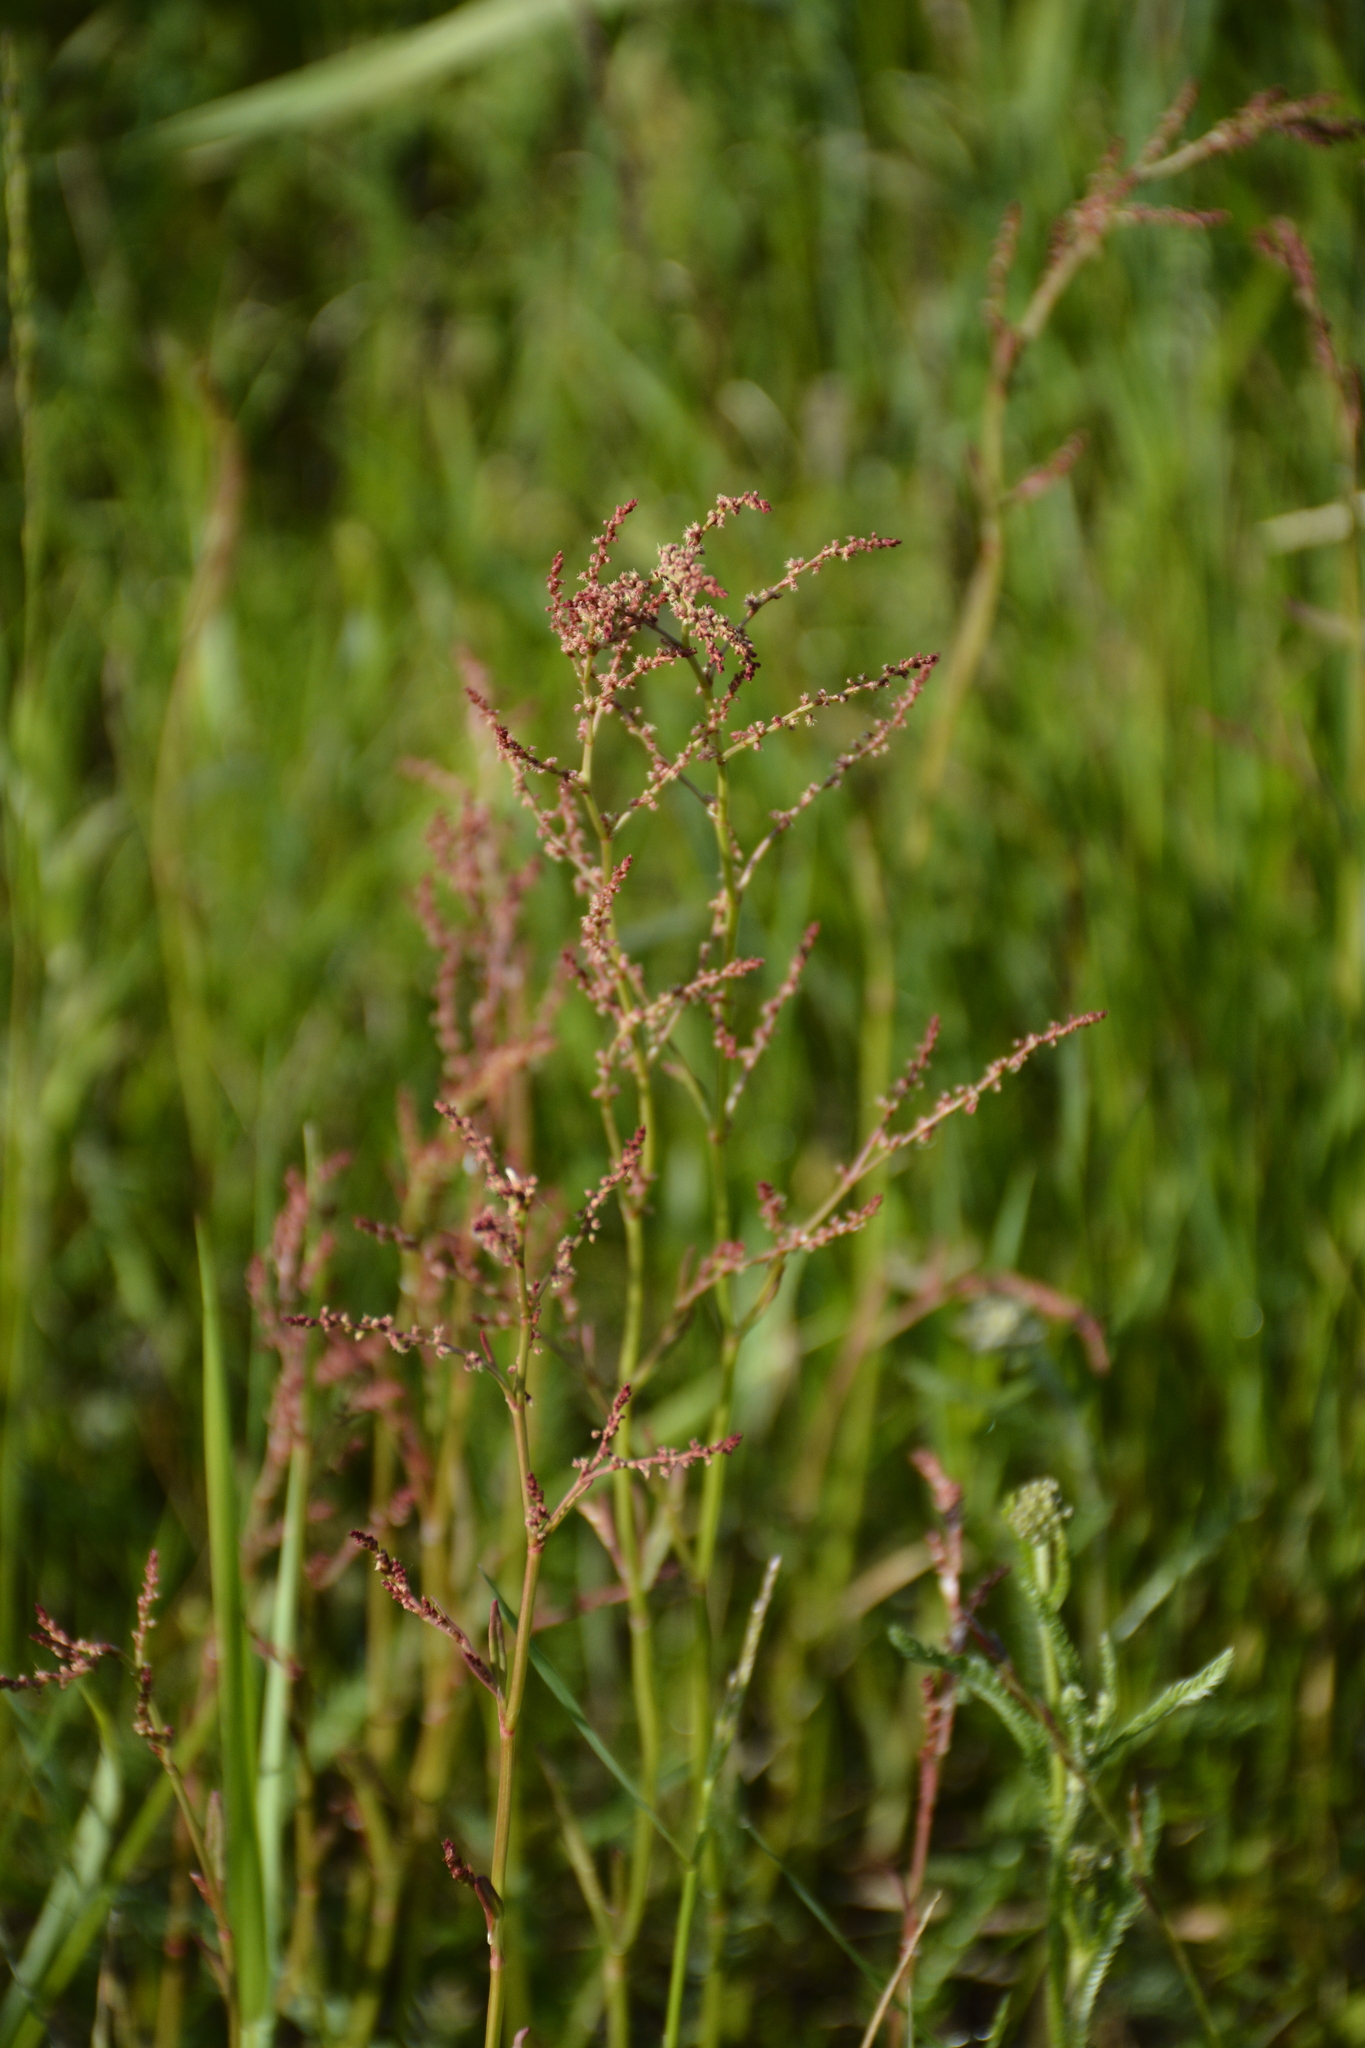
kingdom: Plantae
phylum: Tracheophyta
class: Magnoliopsida
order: Caryophyllales
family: Polygonaceae
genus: Rumex
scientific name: Rumex acetosella
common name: Common sheep sorrel
